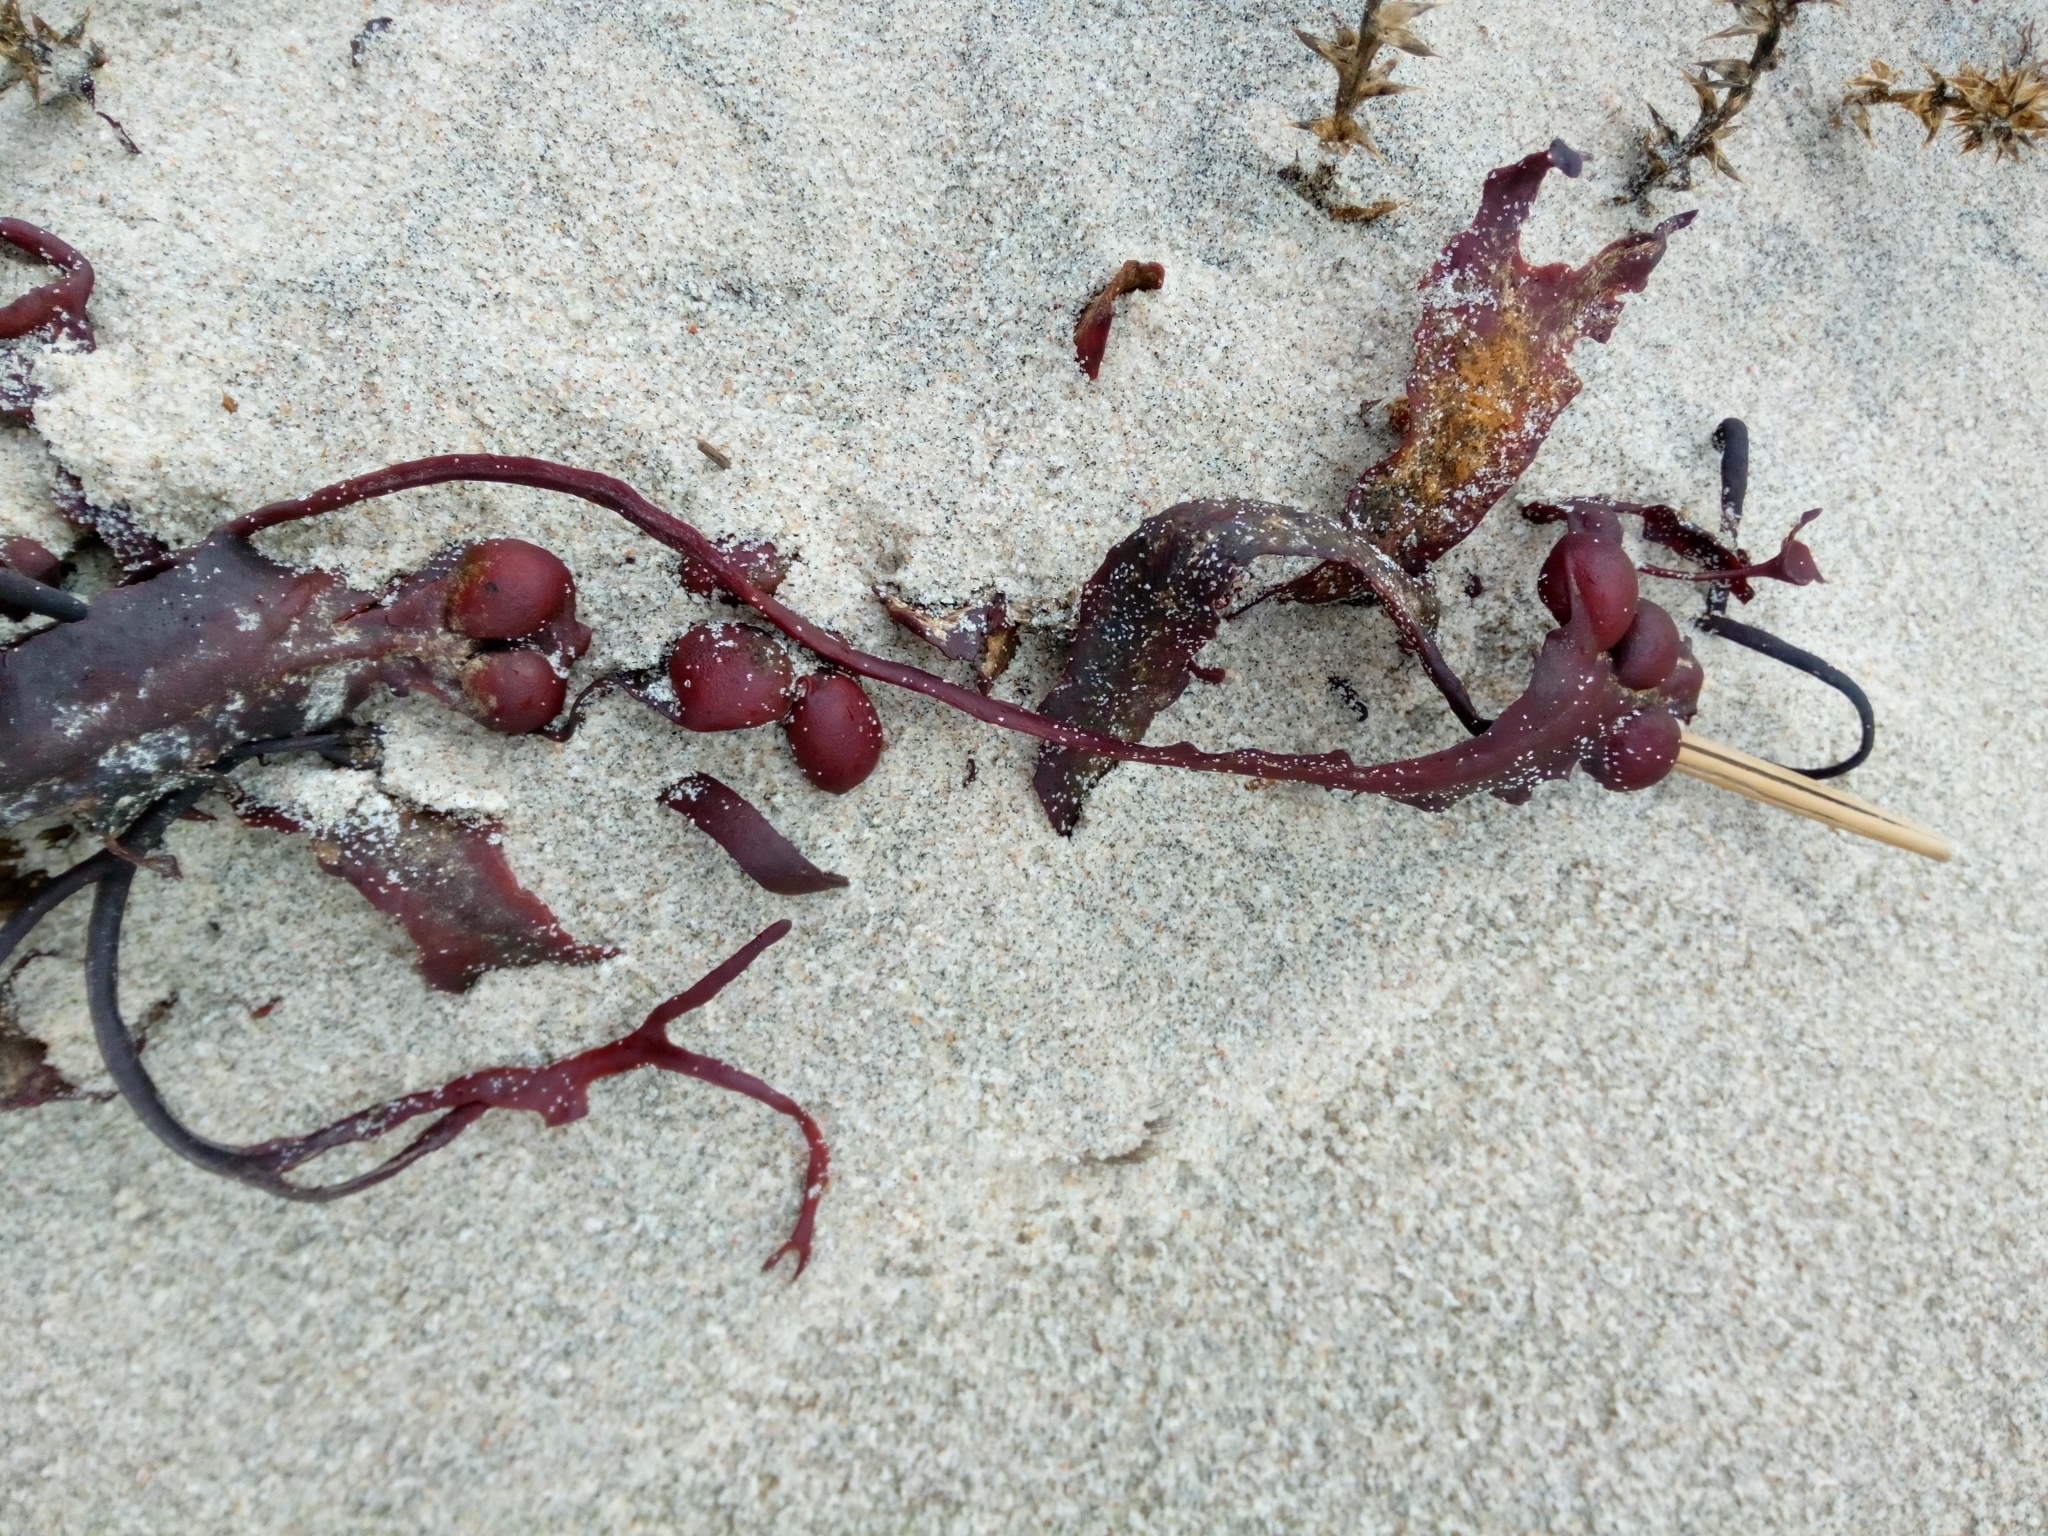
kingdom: Chromista
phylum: Ochrophyta
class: Phaeophyceae
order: Fucales
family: Fucaceae
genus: Fucus
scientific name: Fucus vesiculosus
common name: Bladder wrack
